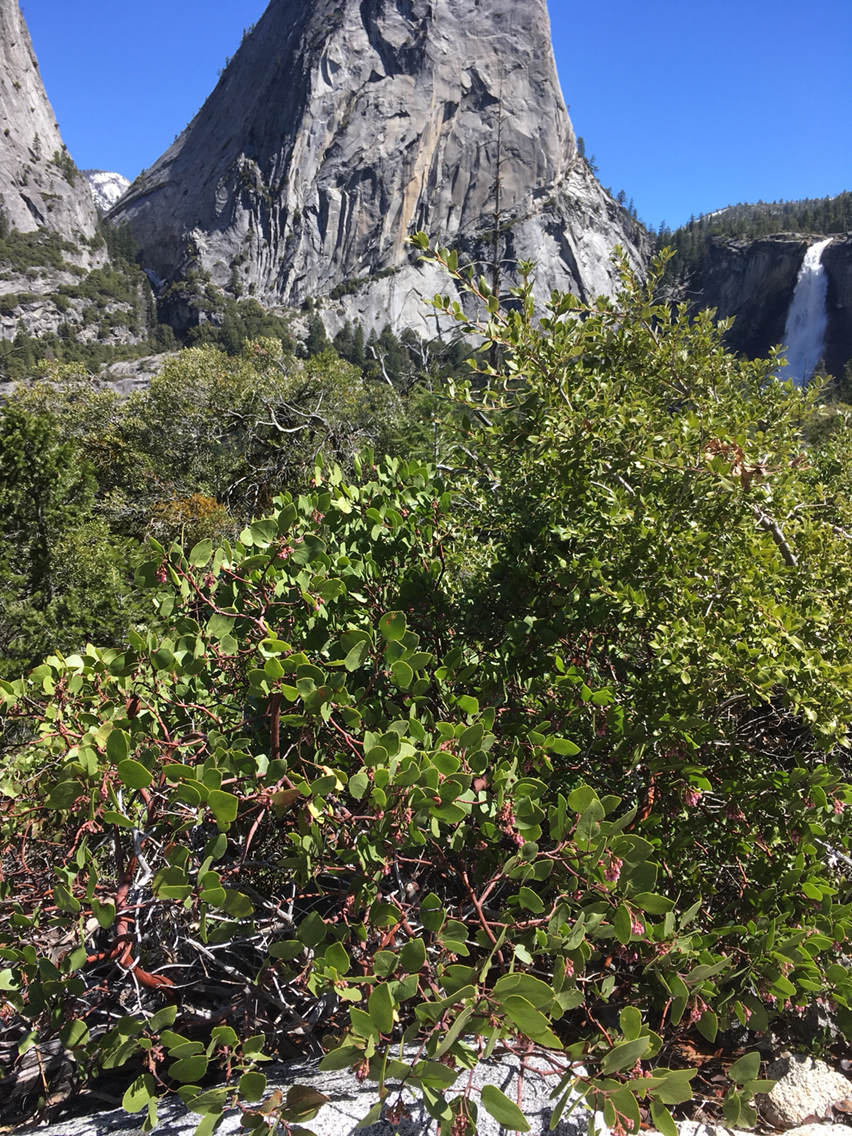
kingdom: Plantae
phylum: Tracheophyta
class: Magnoliopsida
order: Ericales
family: Ericaceae
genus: Arctostaphylos
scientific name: Arctostaphylos patula
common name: Green-leaf manzanita
